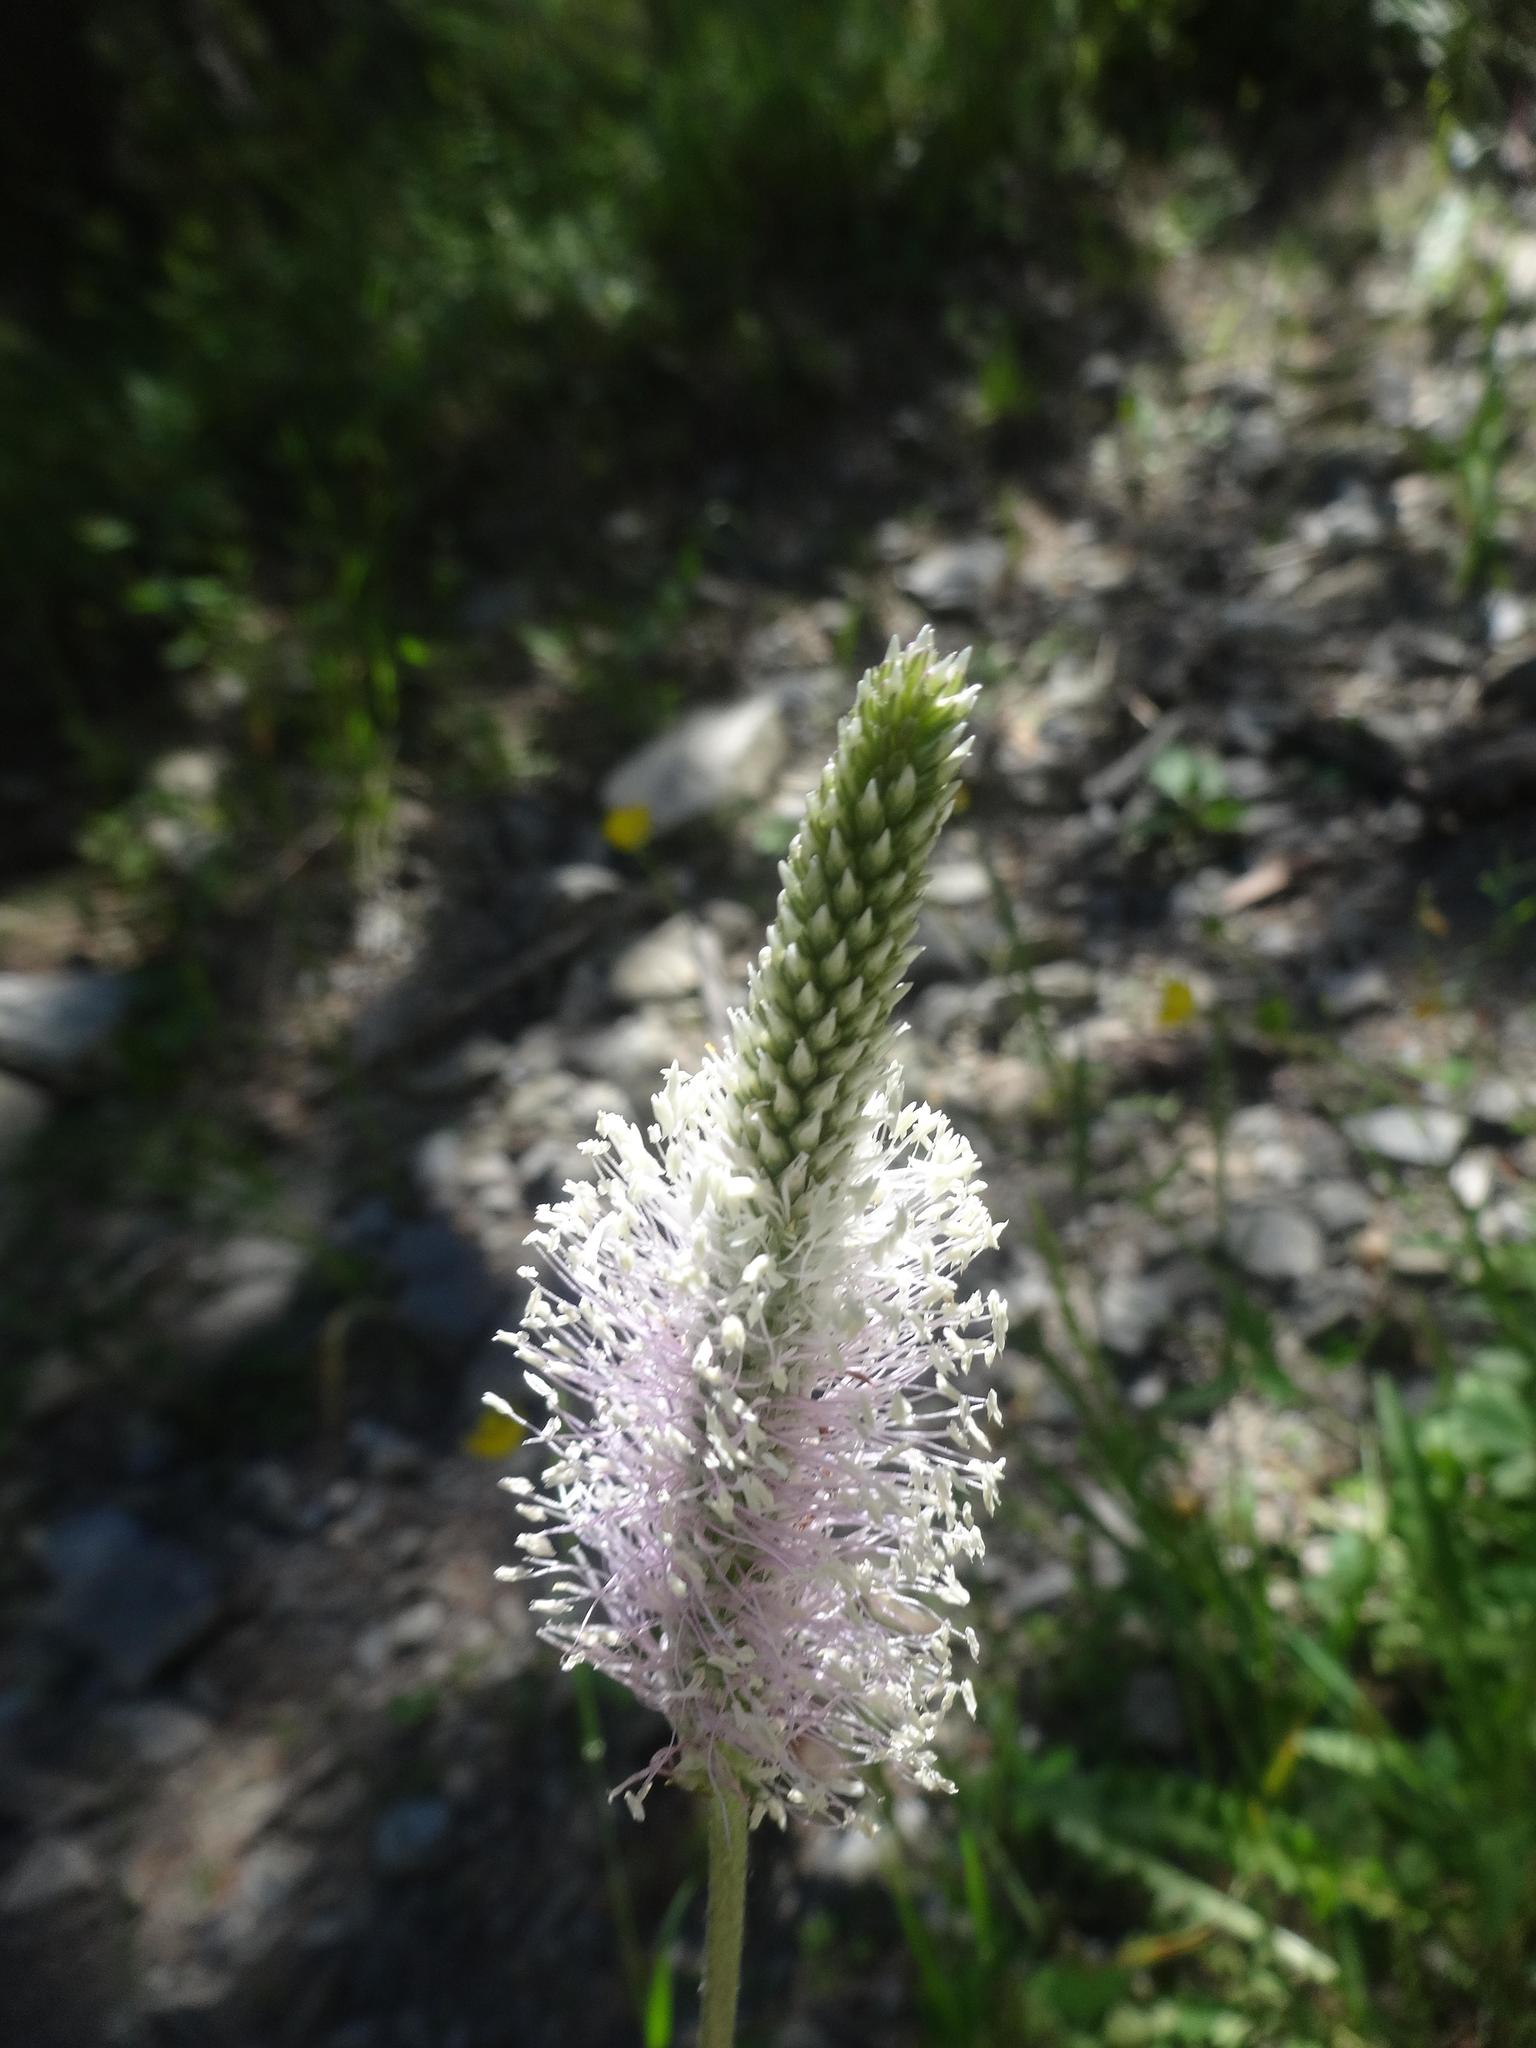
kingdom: Plantae
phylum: Tracheophyta
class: Magnoliopsida
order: Lamiales
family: Plantaginaceae
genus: Plantago
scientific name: Plantago media
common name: Hoary plantain
